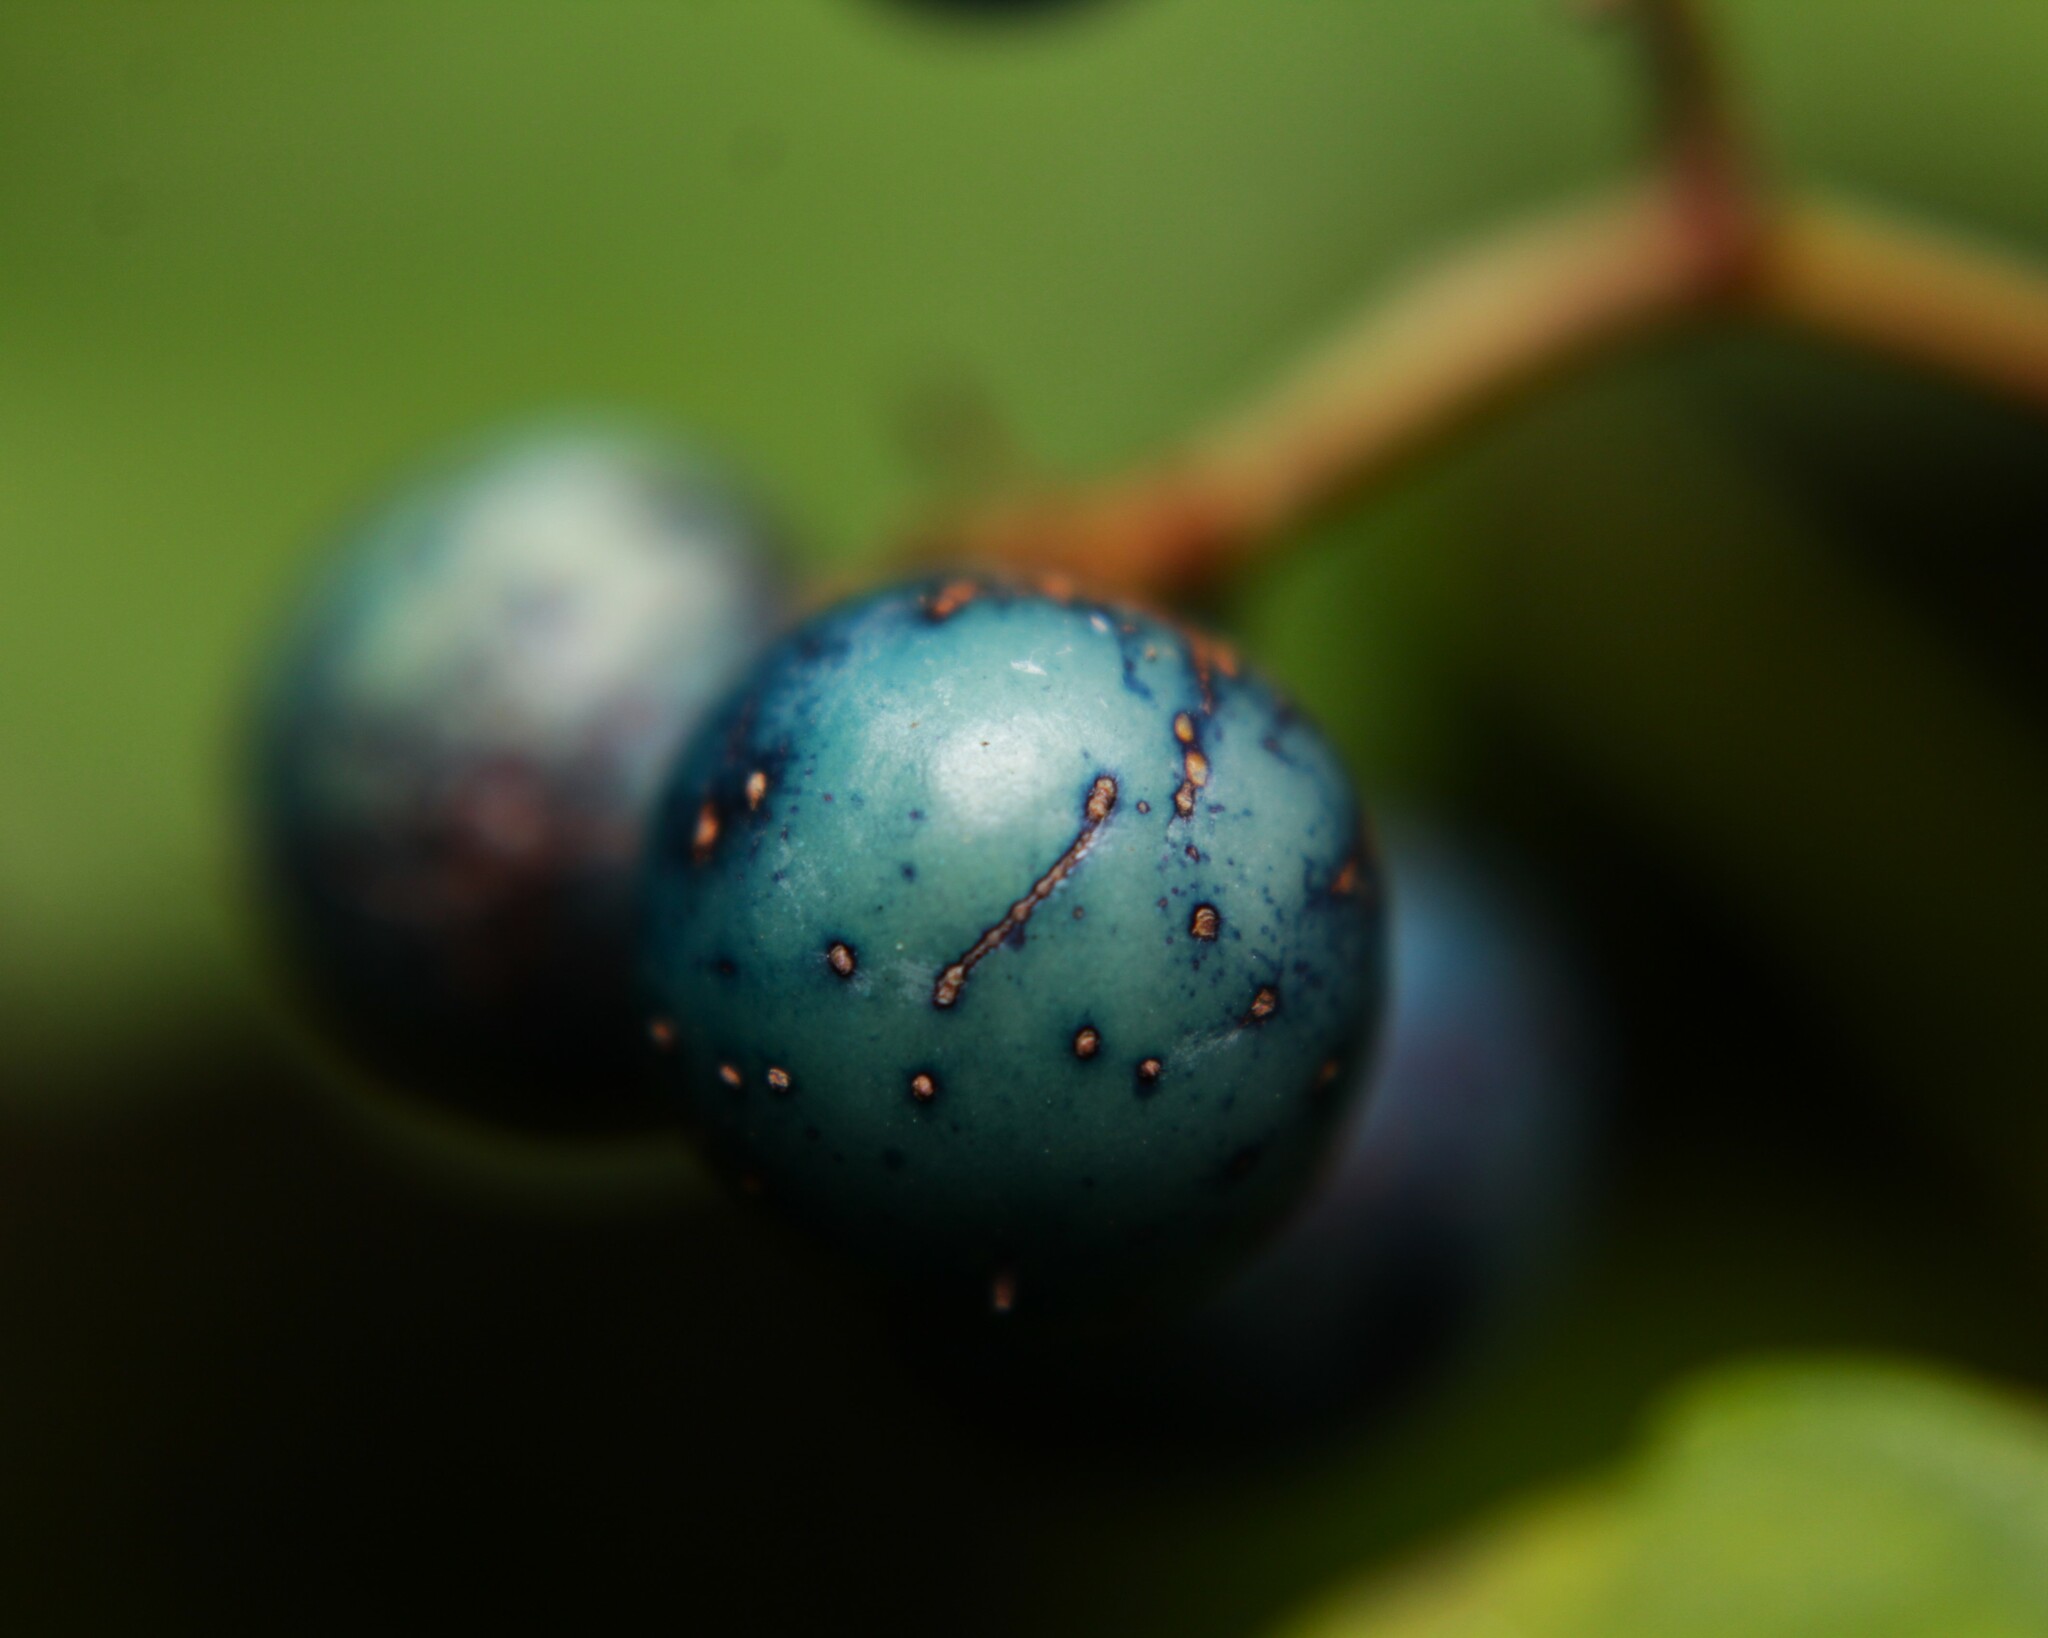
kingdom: Plantae
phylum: Tracheophyta
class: Magnoliopsida
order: Vitales
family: Vitaceae
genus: Ampelopsis
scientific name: Ampelopsis glandulosa
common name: Amur peppervine
